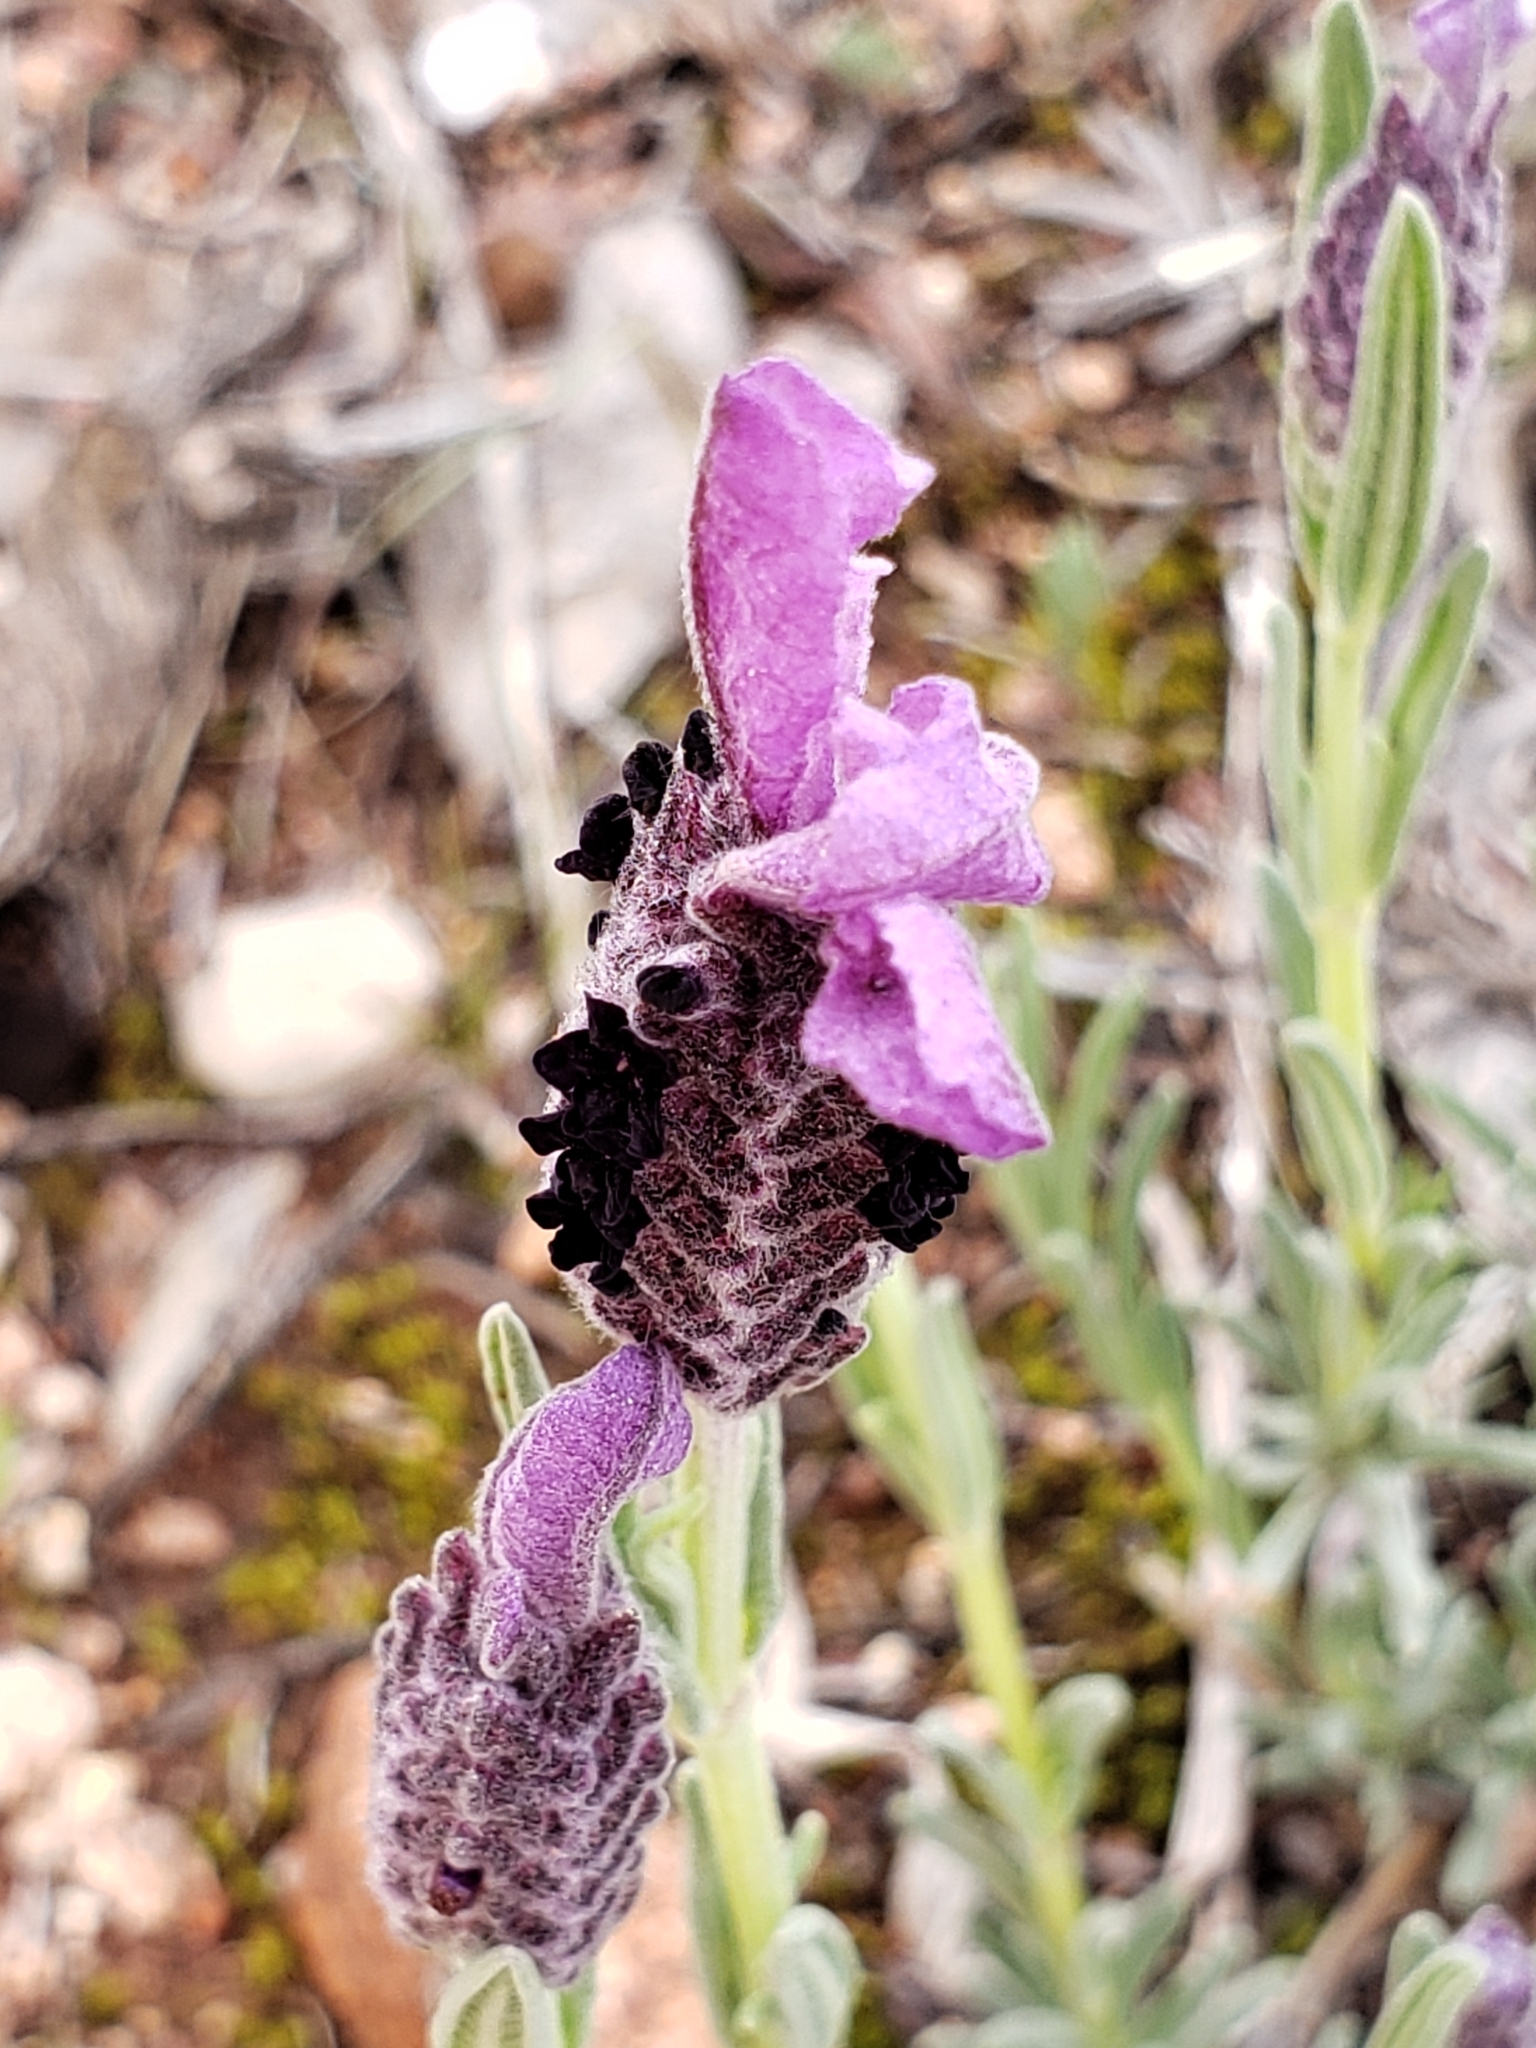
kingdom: Plantae
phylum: Tracheophyta
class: Magnoliopsida
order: Lamiales
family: Lamiaceae
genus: Lavandula
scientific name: Lavandula stoechas
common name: French lavender
